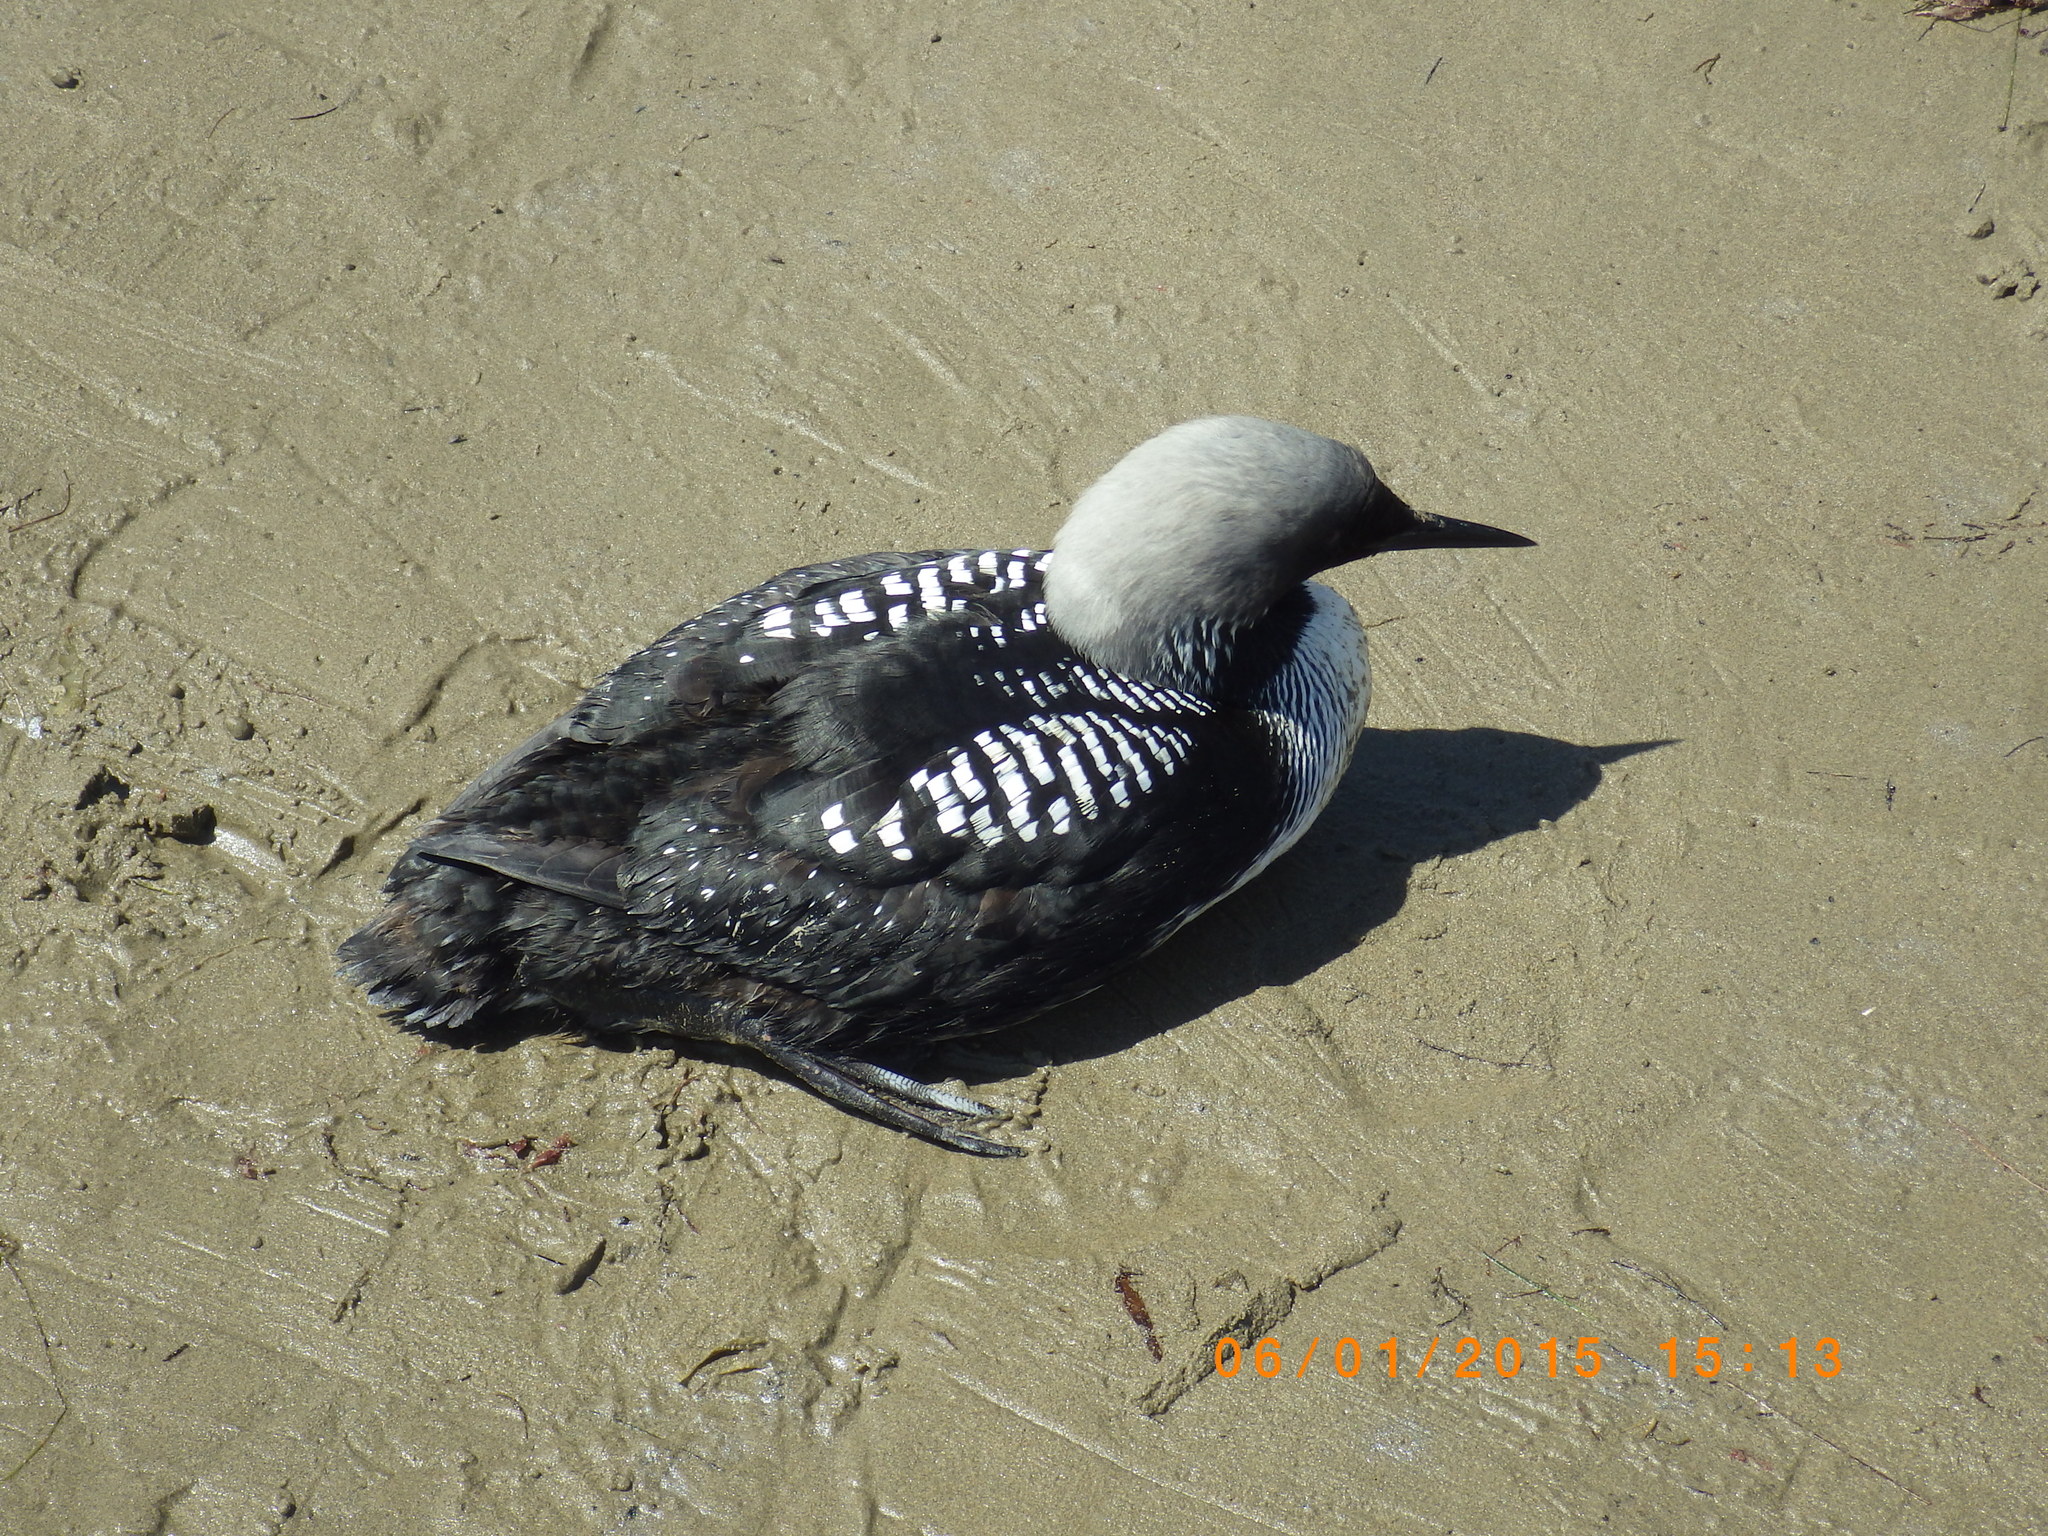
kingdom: Animalia
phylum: Chordata
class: Aves
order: Gaviiformes
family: Gaviidae
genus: Gavia
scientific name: Gavia pacifica
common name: Pacific loon
